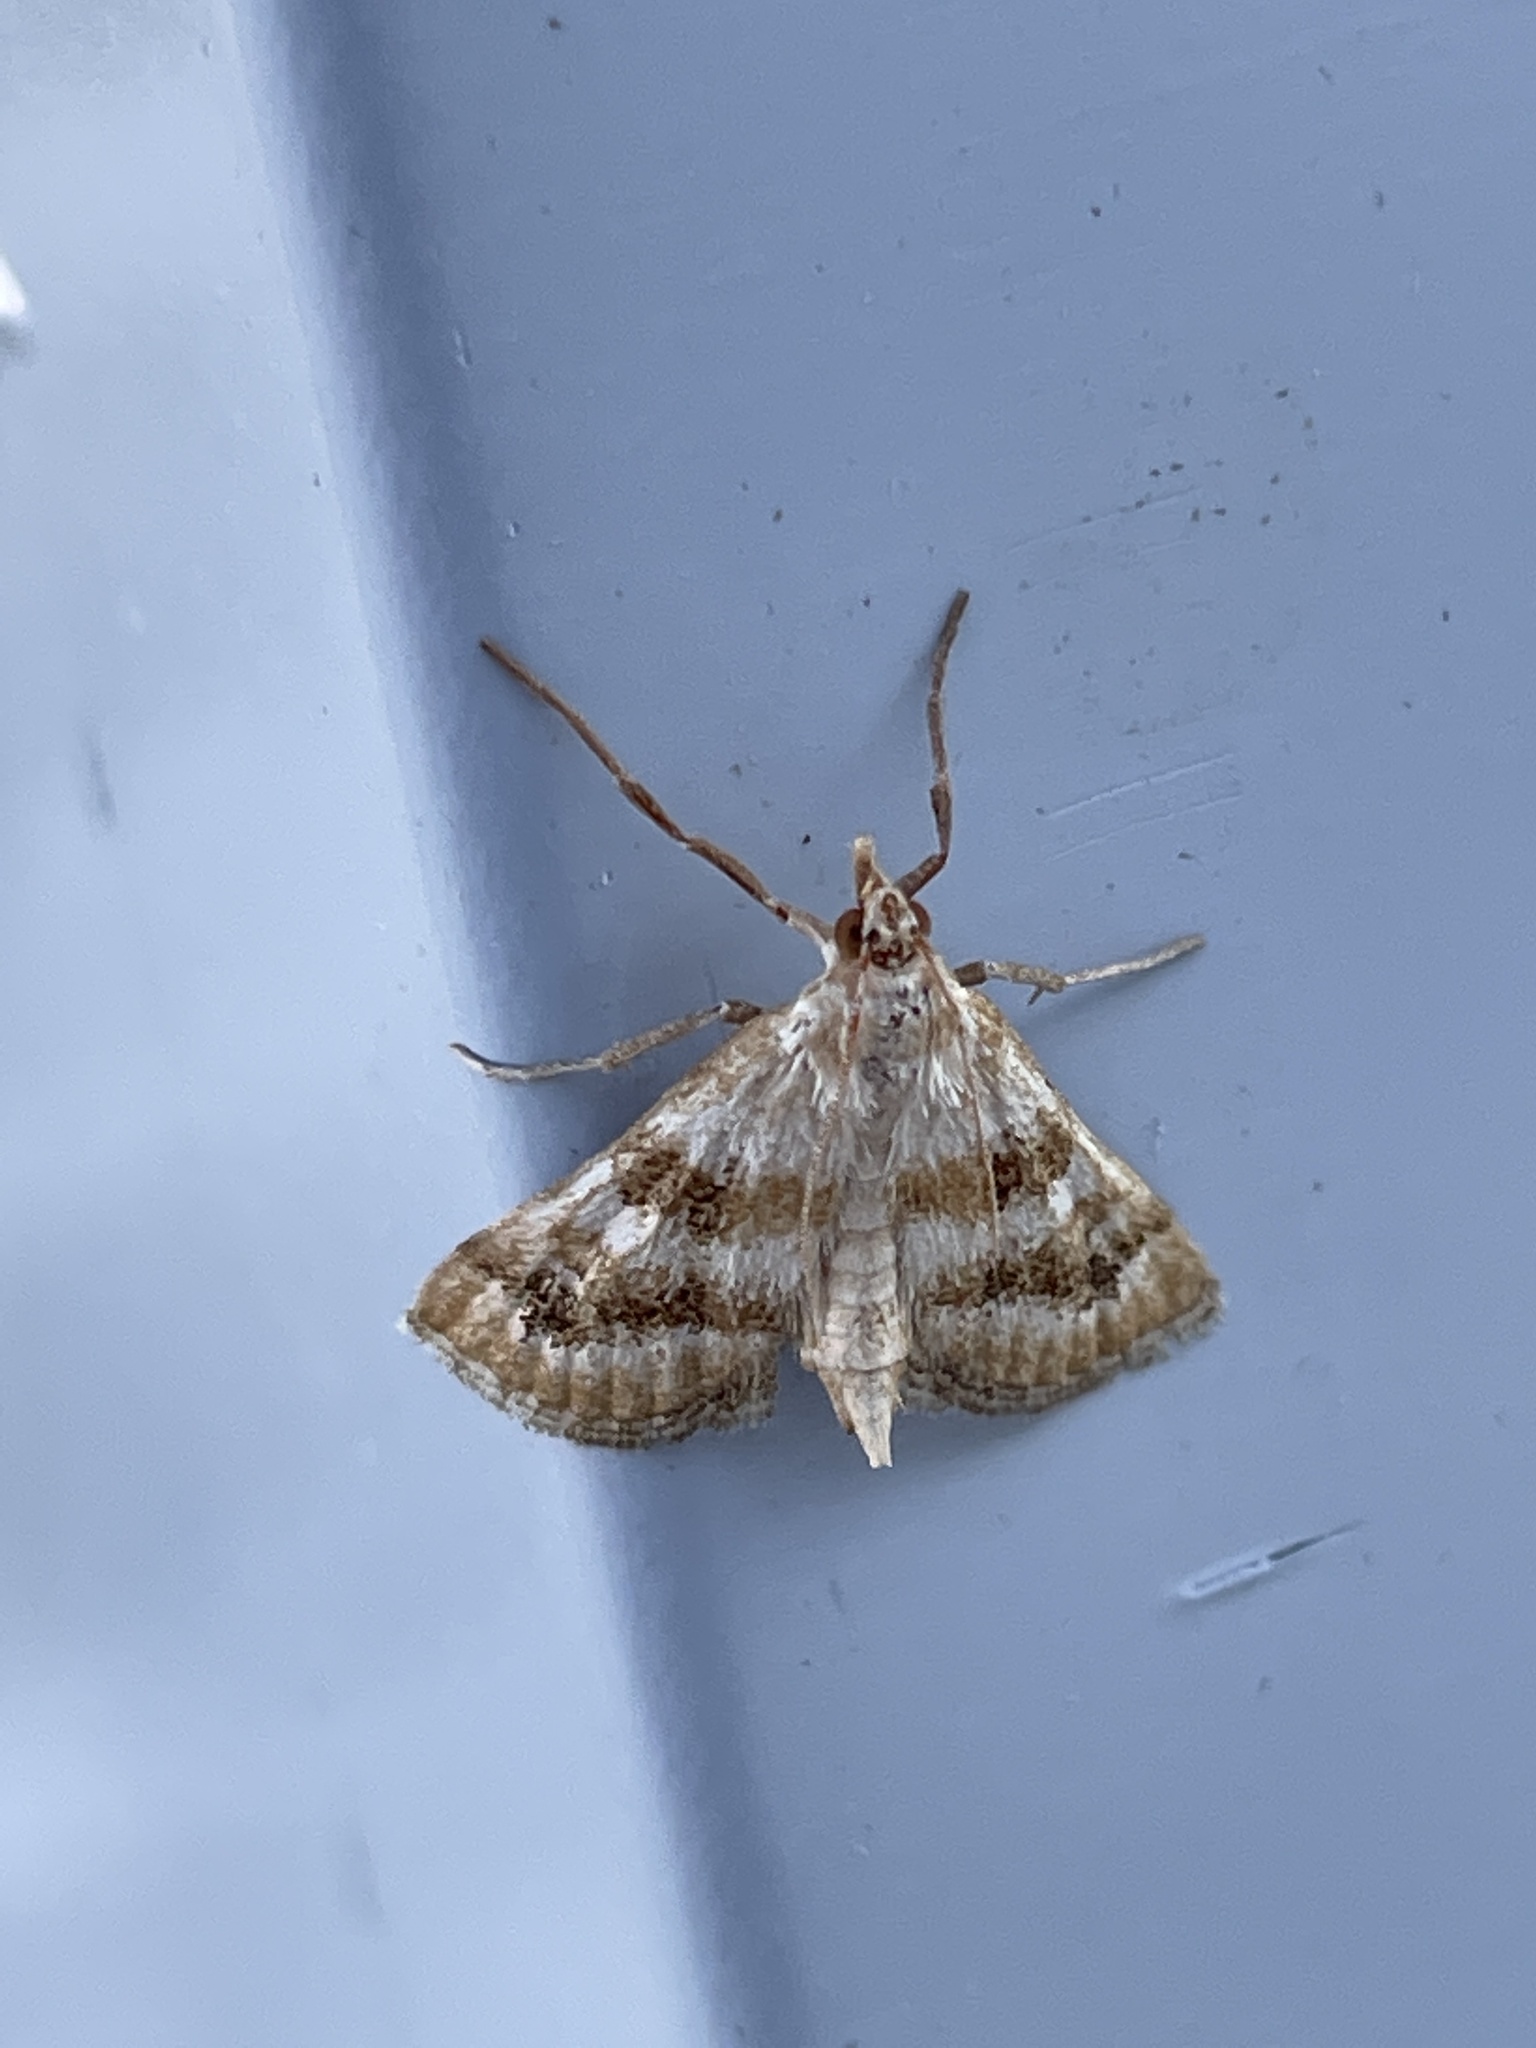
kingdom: Animalia
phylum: Arthropoda
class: Insecta
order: Lepidoptera
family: Crambidae
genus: Metasia
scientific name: Metasia suppandalis
